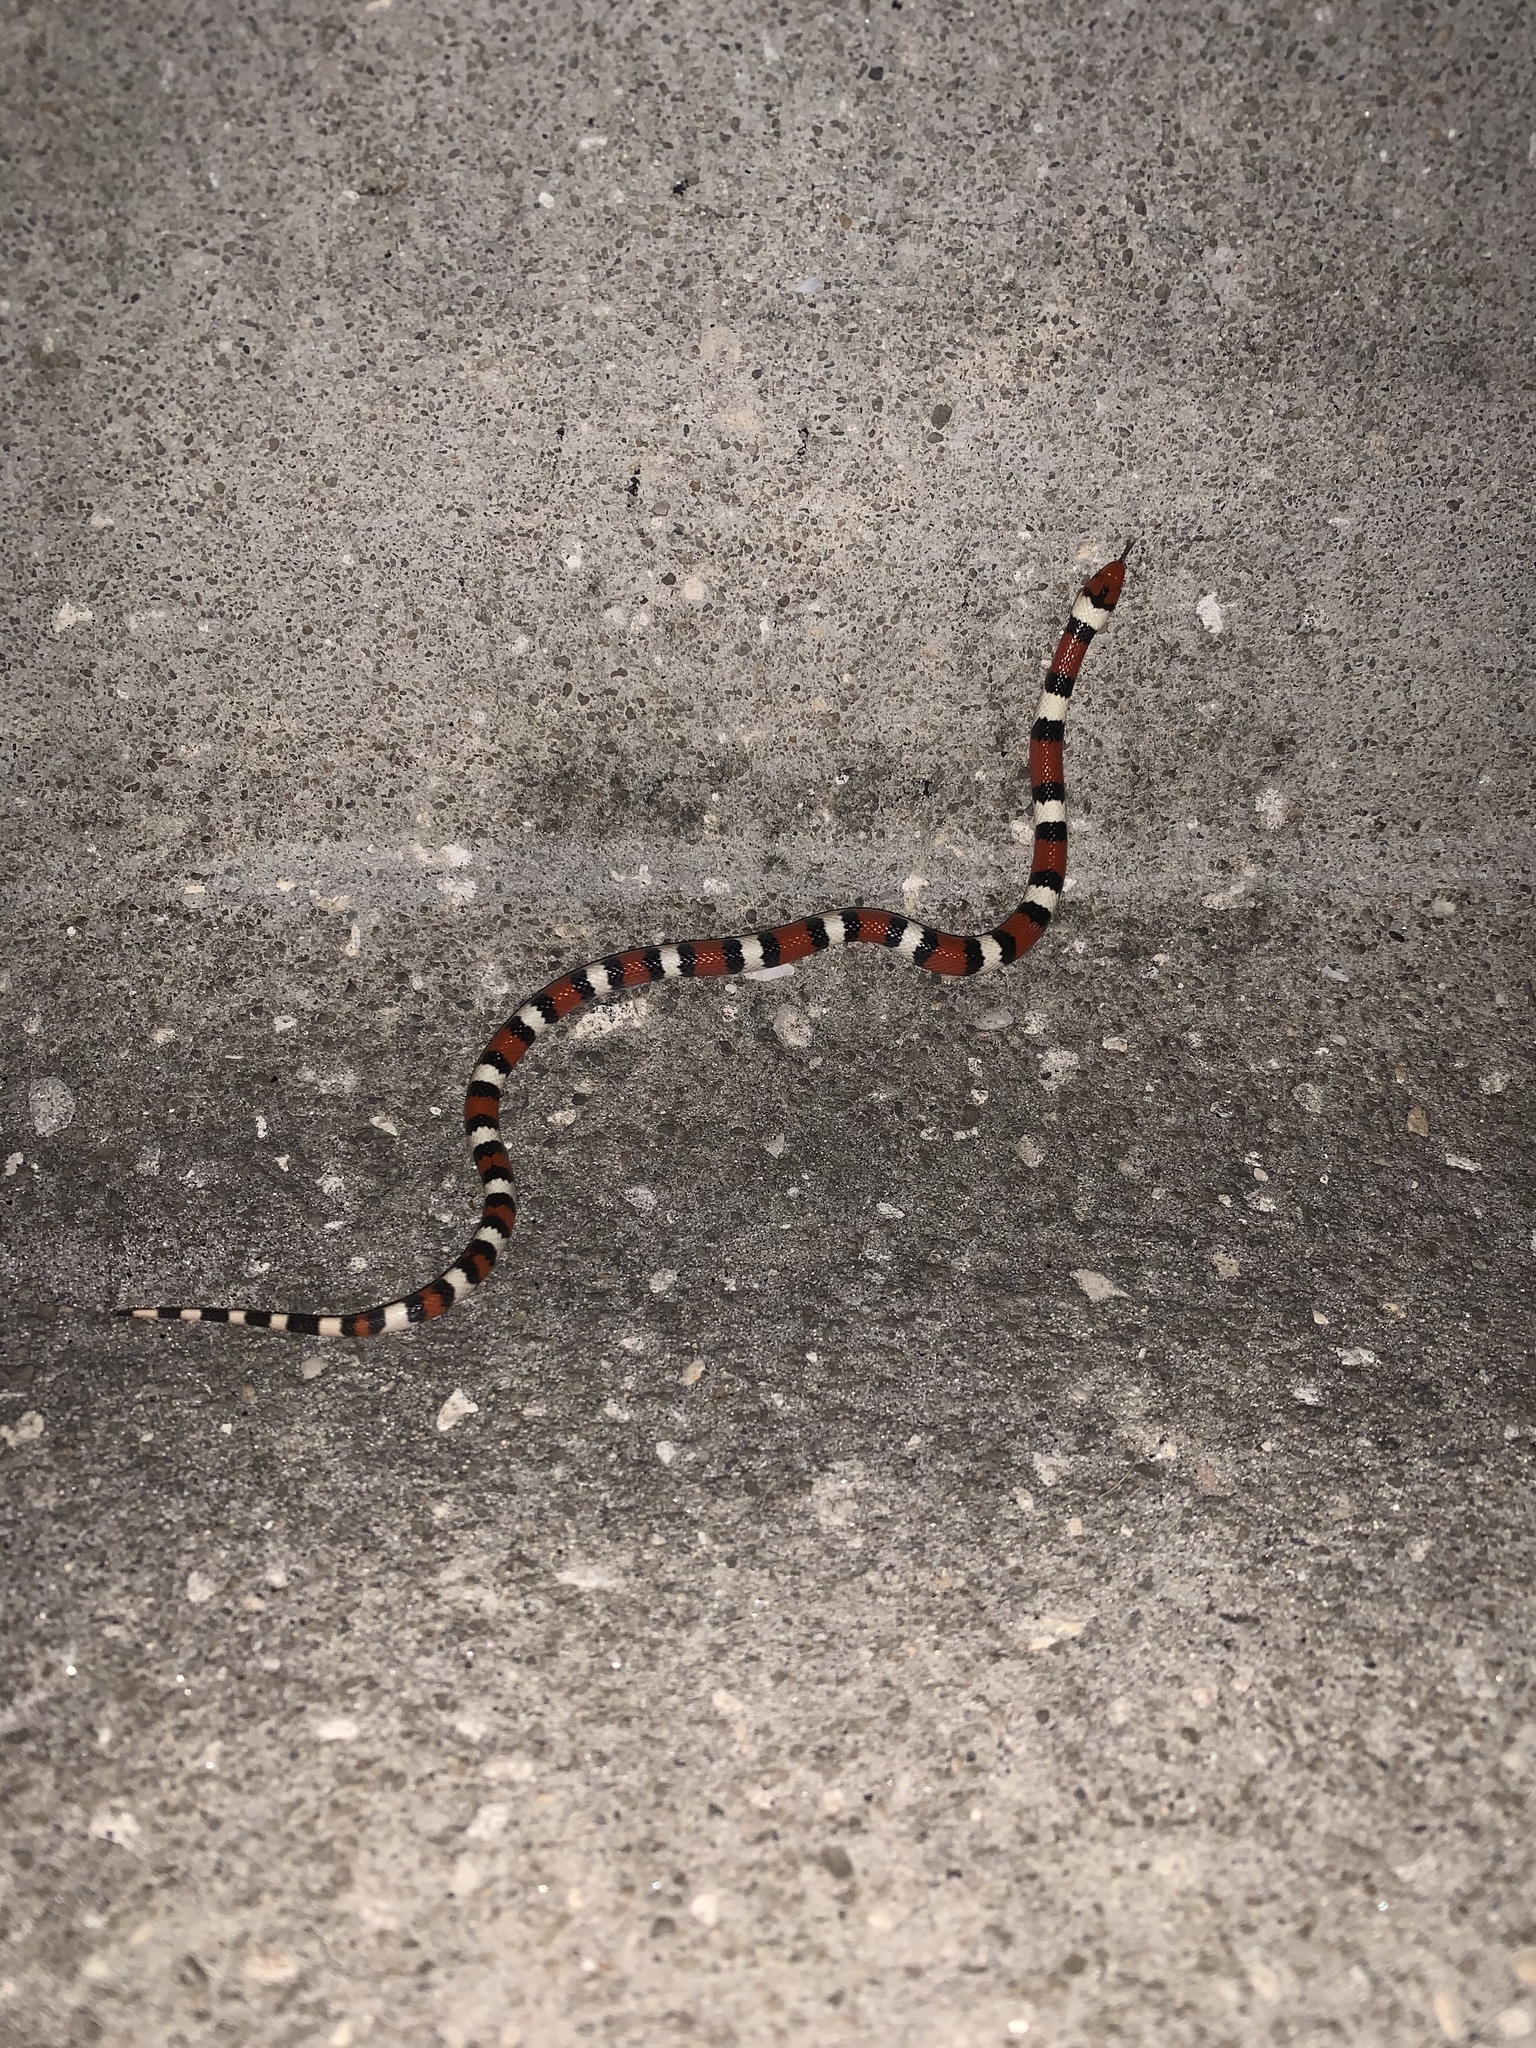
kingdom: Animalia
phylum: Chordata
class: Squamata
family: Colubridae
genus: Lampropeltis
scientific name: Lampropeltis elapsoides
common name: Scarlet kingsnake
